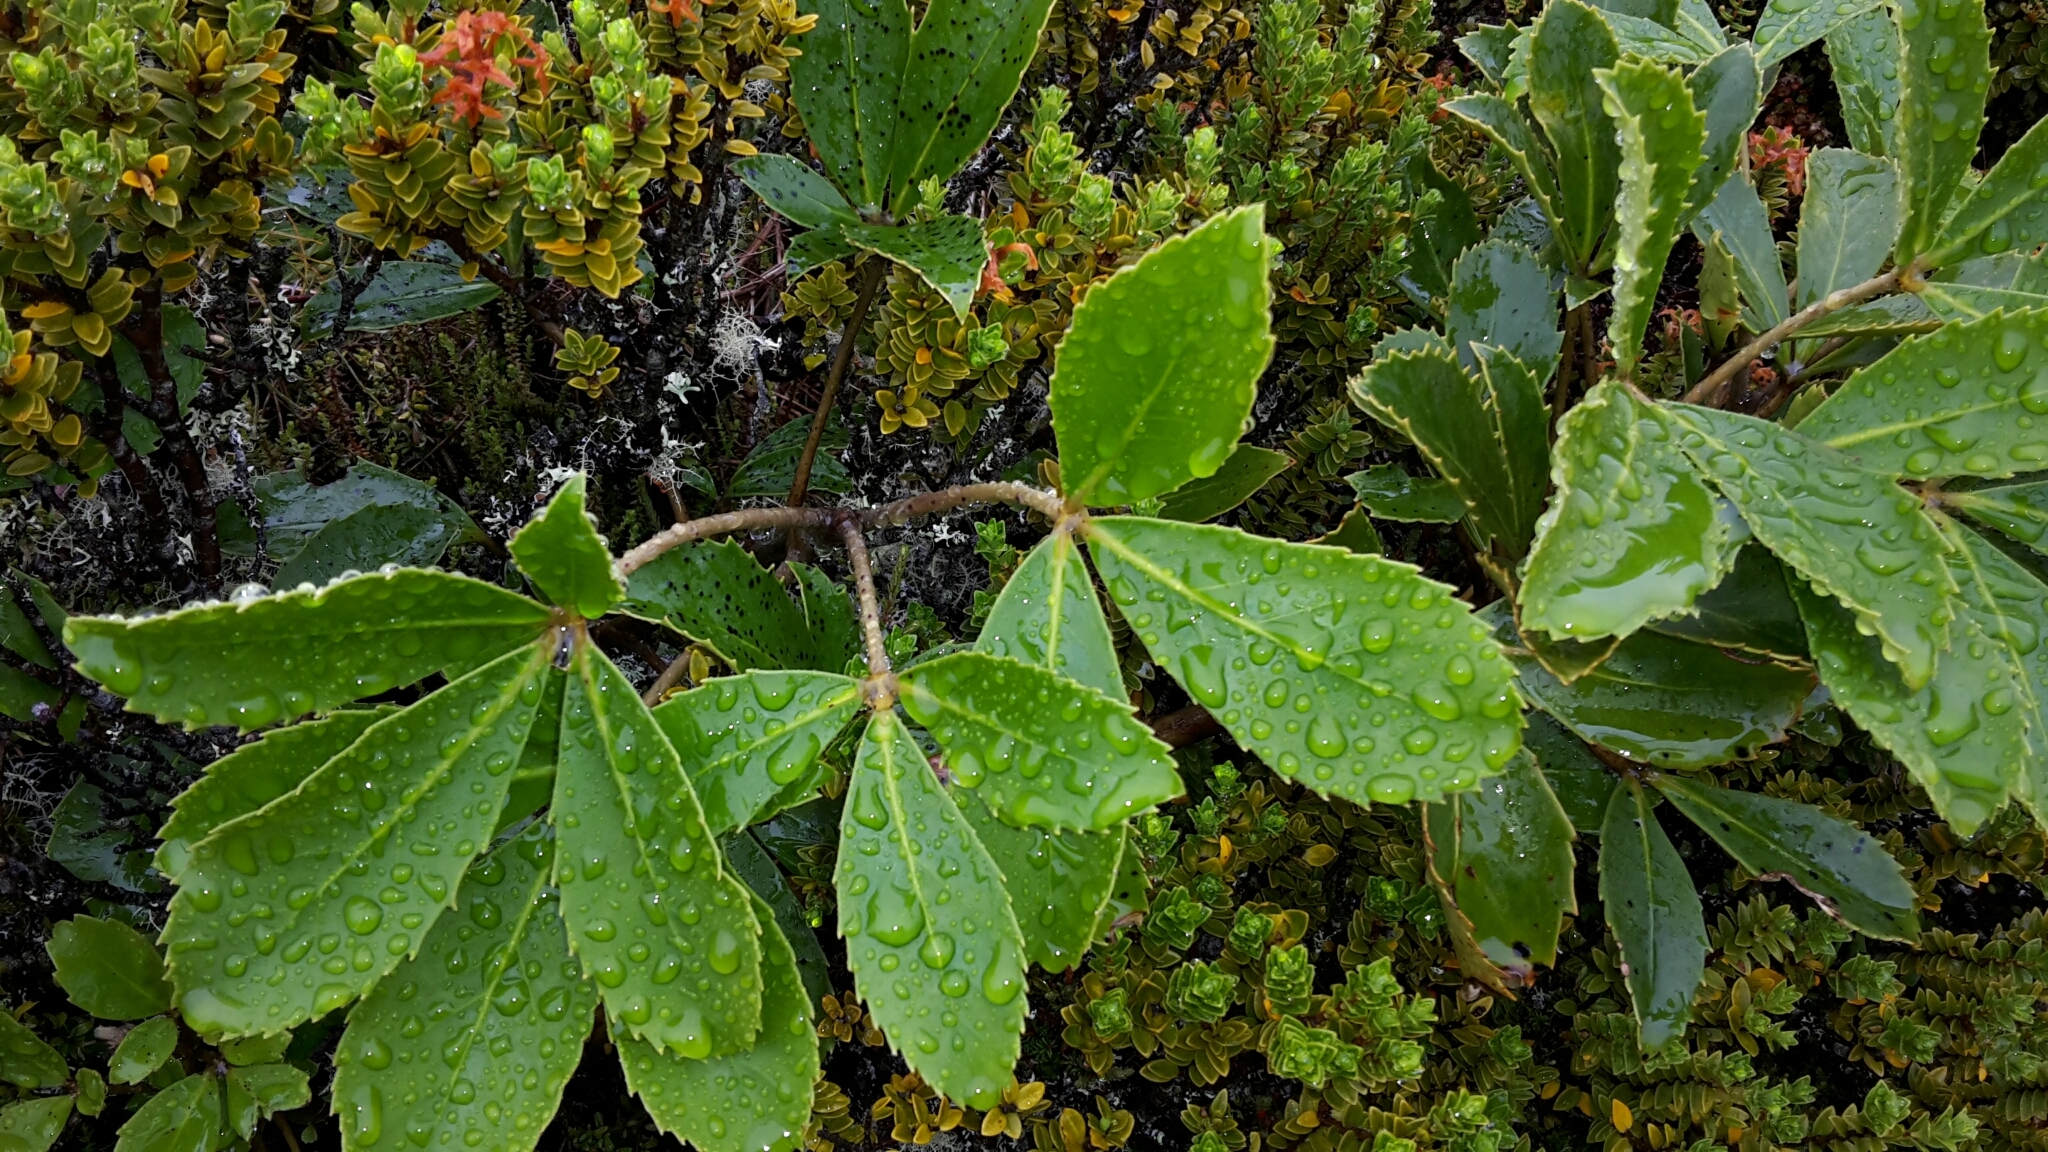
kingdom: Plantae
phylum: Tracheophyta
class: Magnoliopsida
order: Apiales
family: Araliaceae
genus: Neopanax
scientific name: Neopanax colensoi
